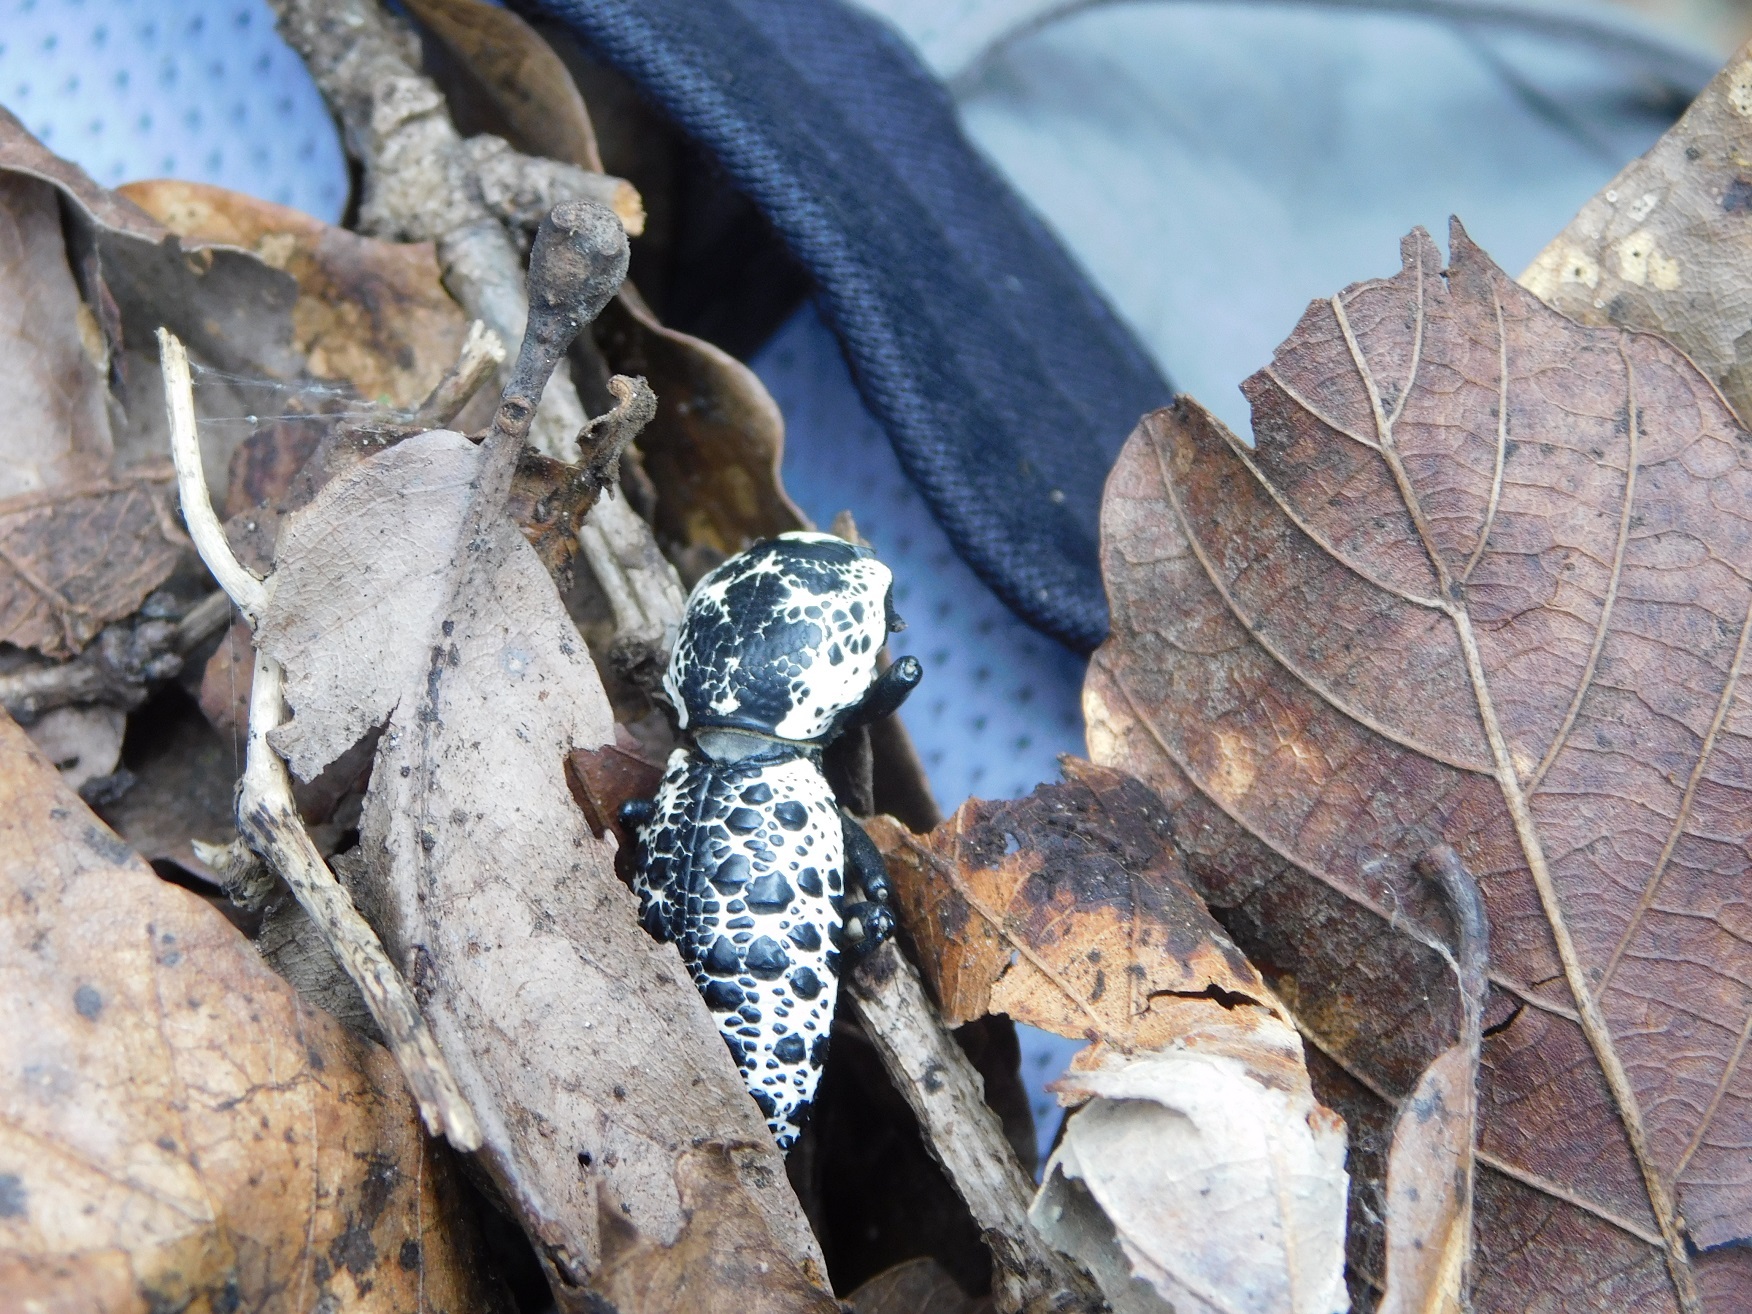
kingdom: Animalia
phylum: Arthropoda
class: Insecta
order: Coleoptera
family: Zopheridae
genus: Zopherus
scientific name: Zopherus
